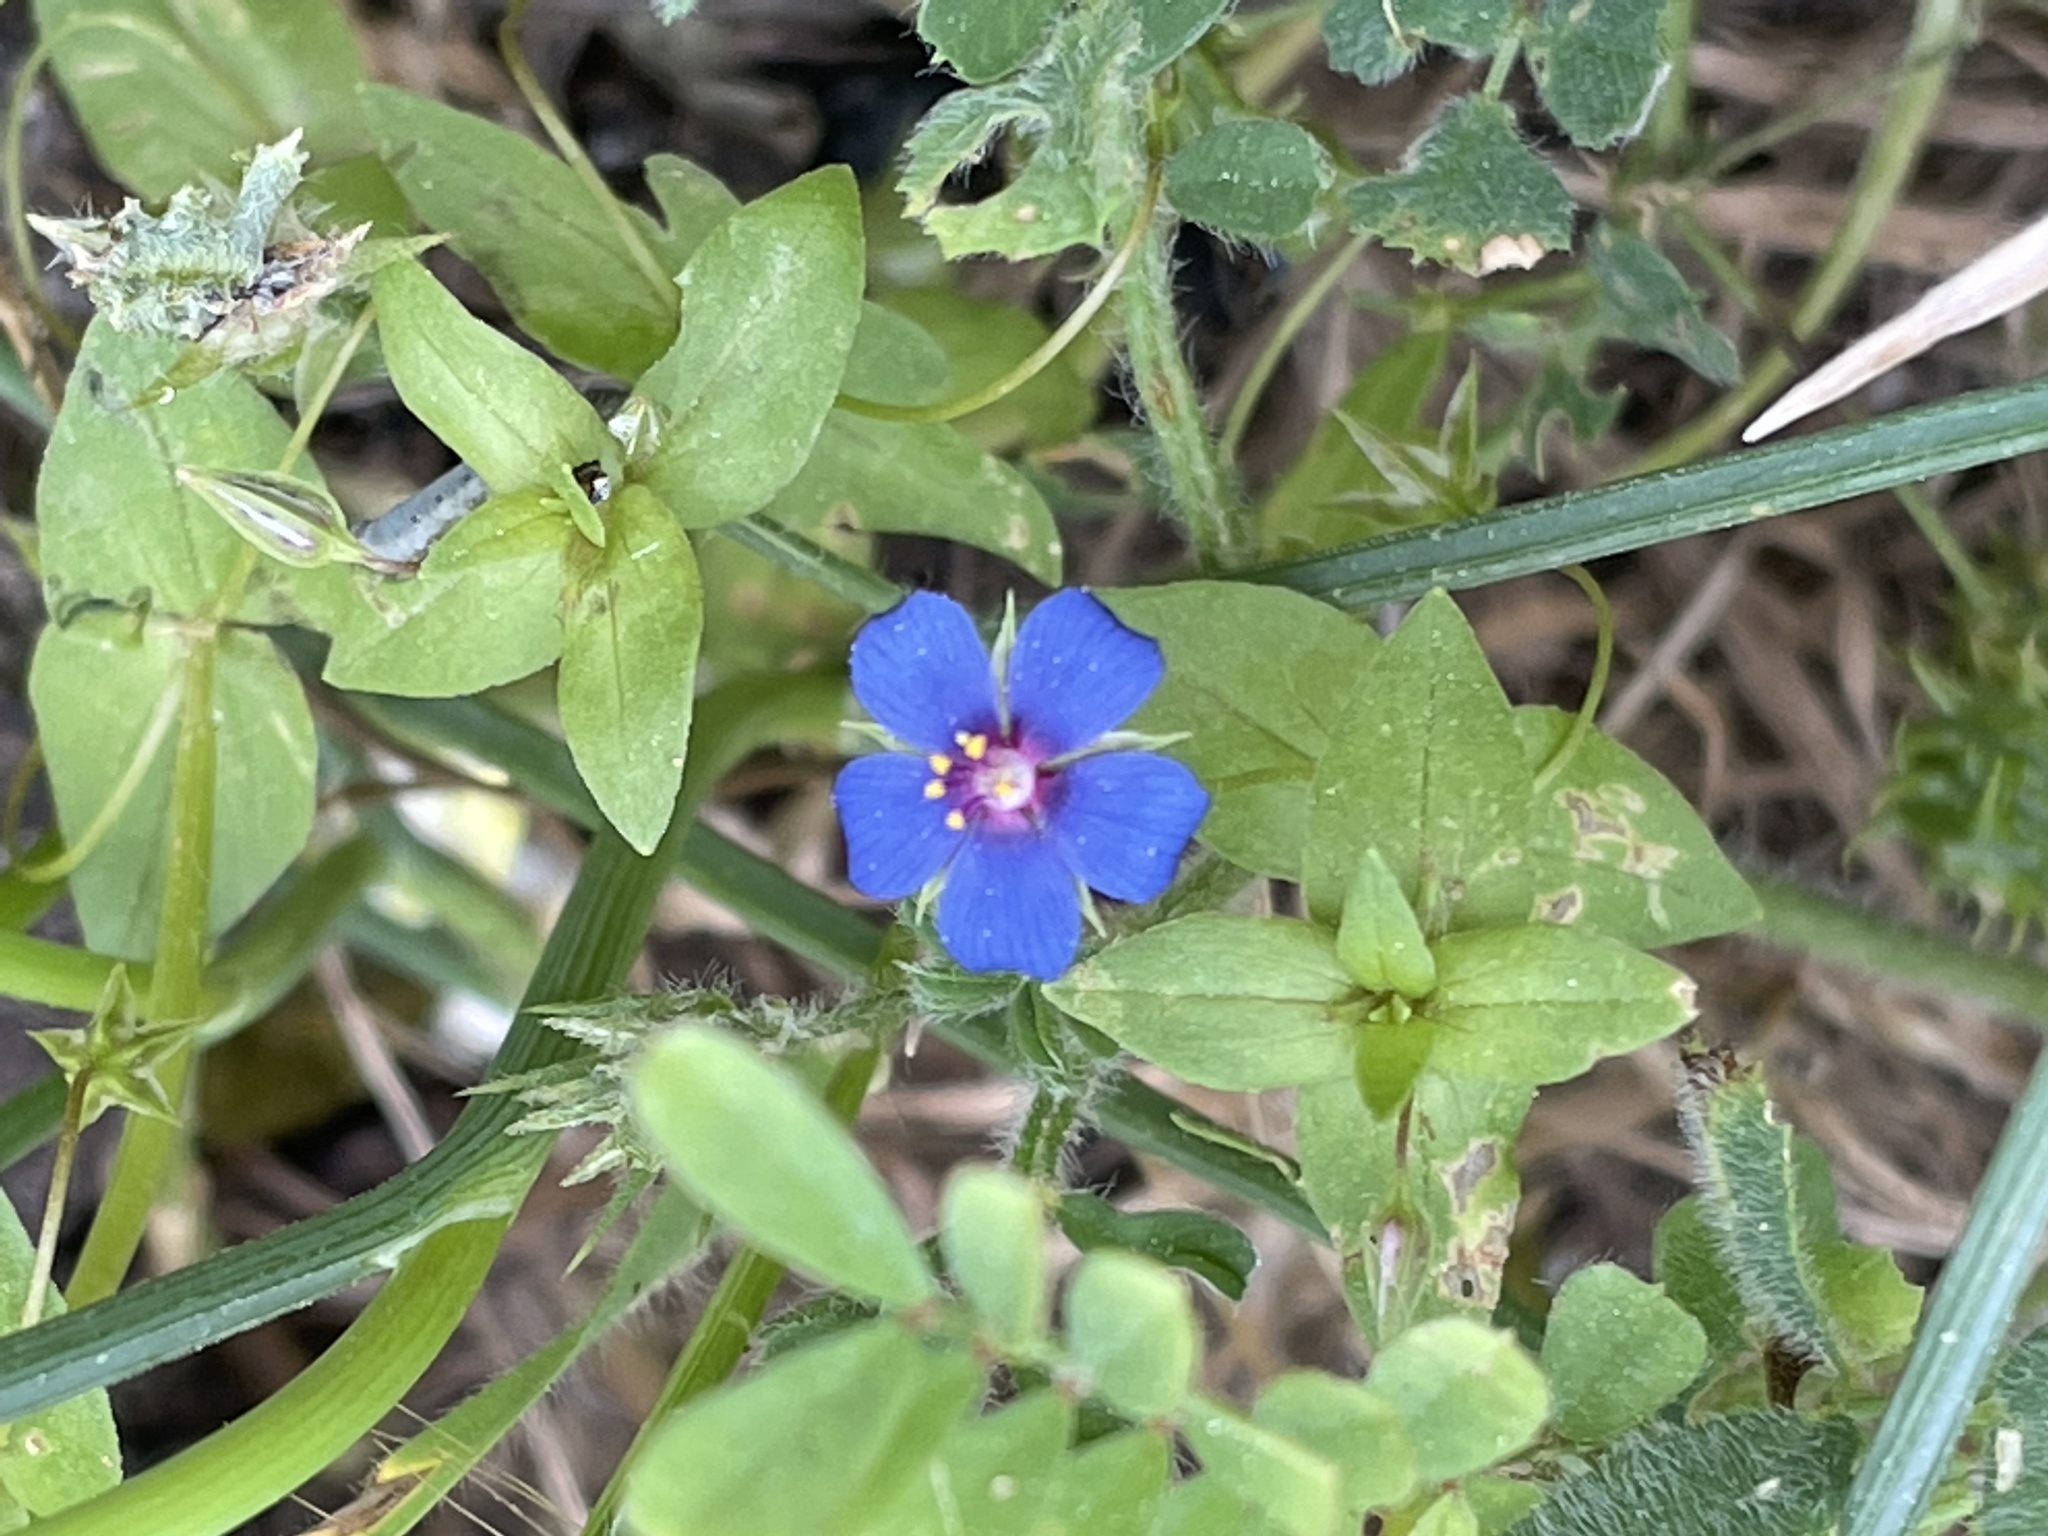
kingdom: Plantae
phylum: Tracheophyta
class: Magnoliopsida
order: Ericales
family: Primulaceae
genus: Lysimachia
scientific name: Lysimachia loeflingii
